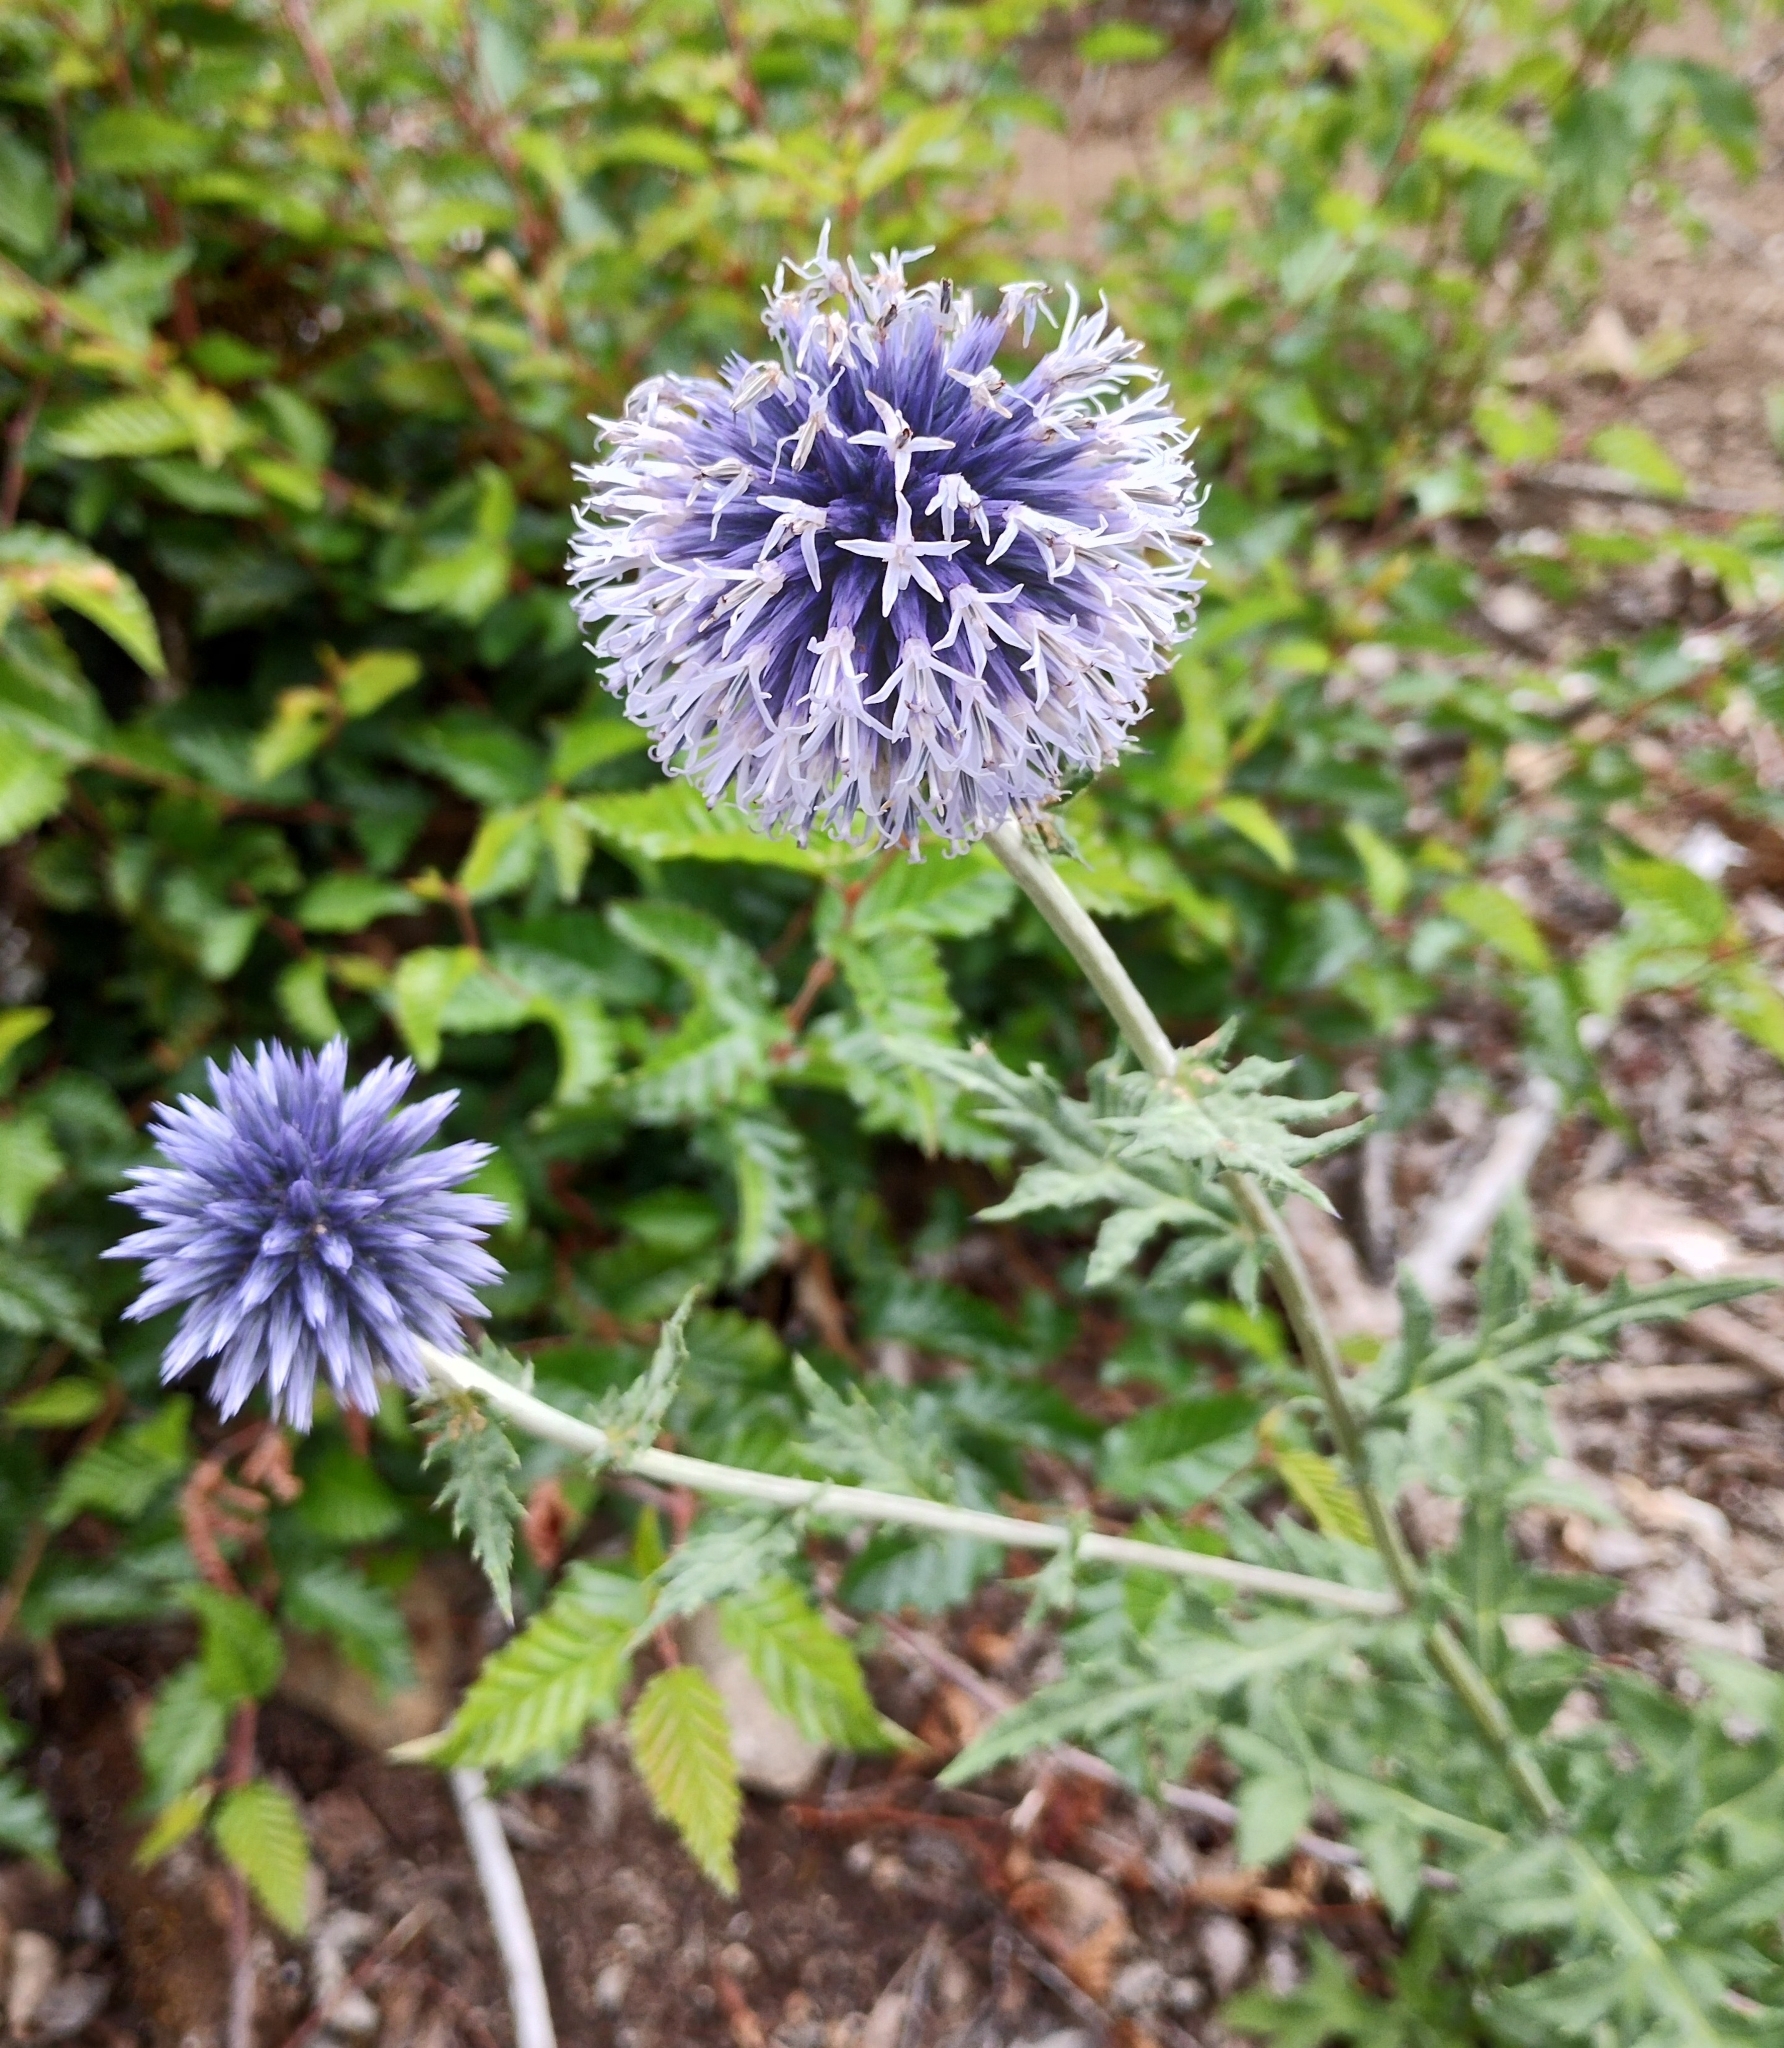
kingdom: Plantae
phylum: Tracheophyta
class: Magnoliopsida
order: Asterales
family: Asteraceae
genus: Echinops
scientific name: Echinops bannaticus
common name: Blue globe-thistle
